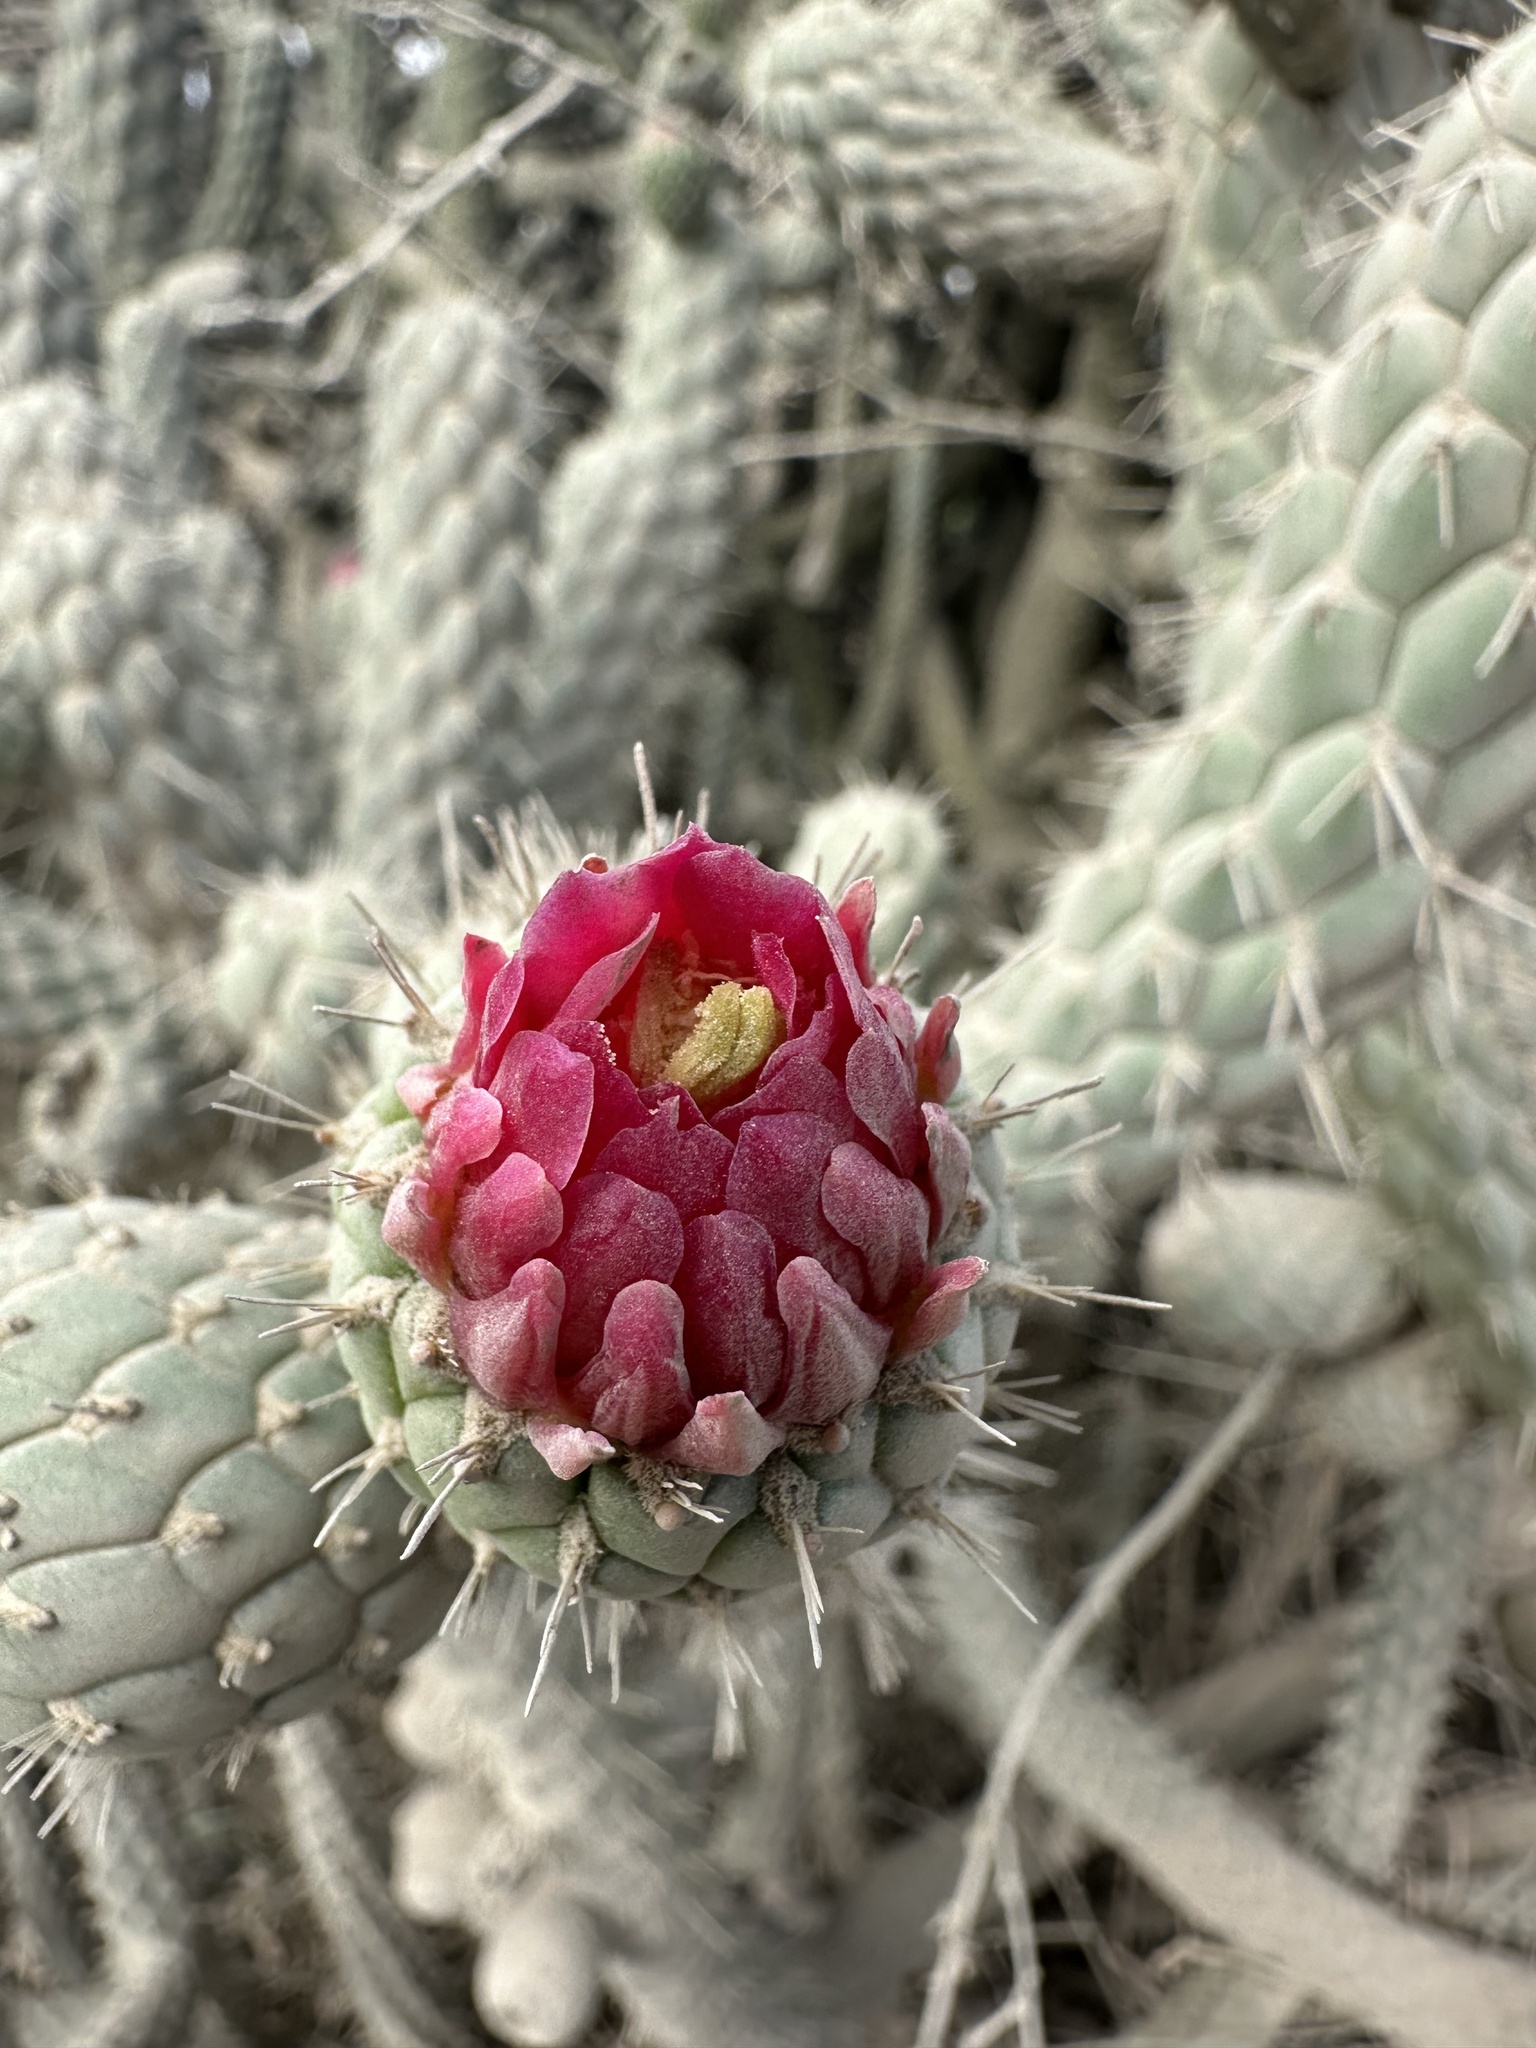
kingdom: Plantae
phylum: Tracheophyta
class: Magnoliopsida
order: Caryophyllales
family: Cactaceae
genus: Austrocylindropuntia
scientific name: Austrocylindropuntia cylindrica
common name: Cane cactus
